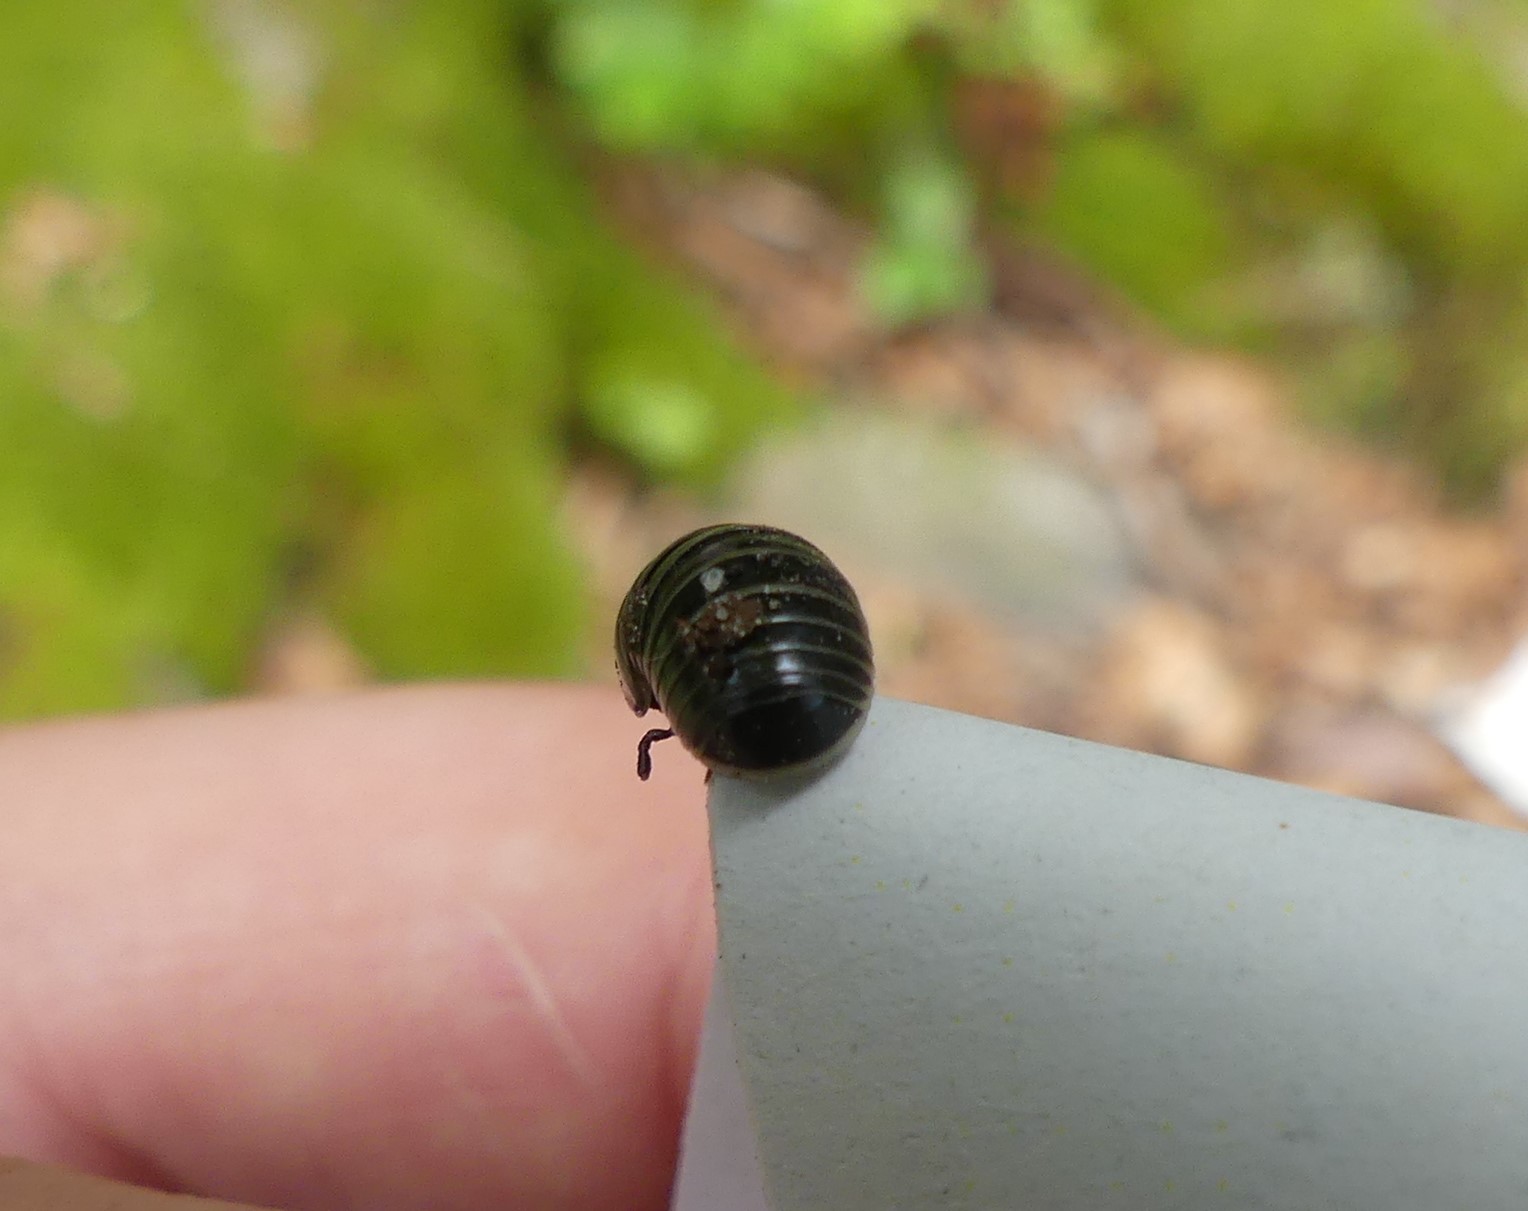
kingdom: Animalia
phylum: Arthropoda
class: Diplopoda
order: Glomerida
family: Glomeridae
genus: Glomeris
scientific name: Glomeris marginata
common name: Bordered pill millipede
